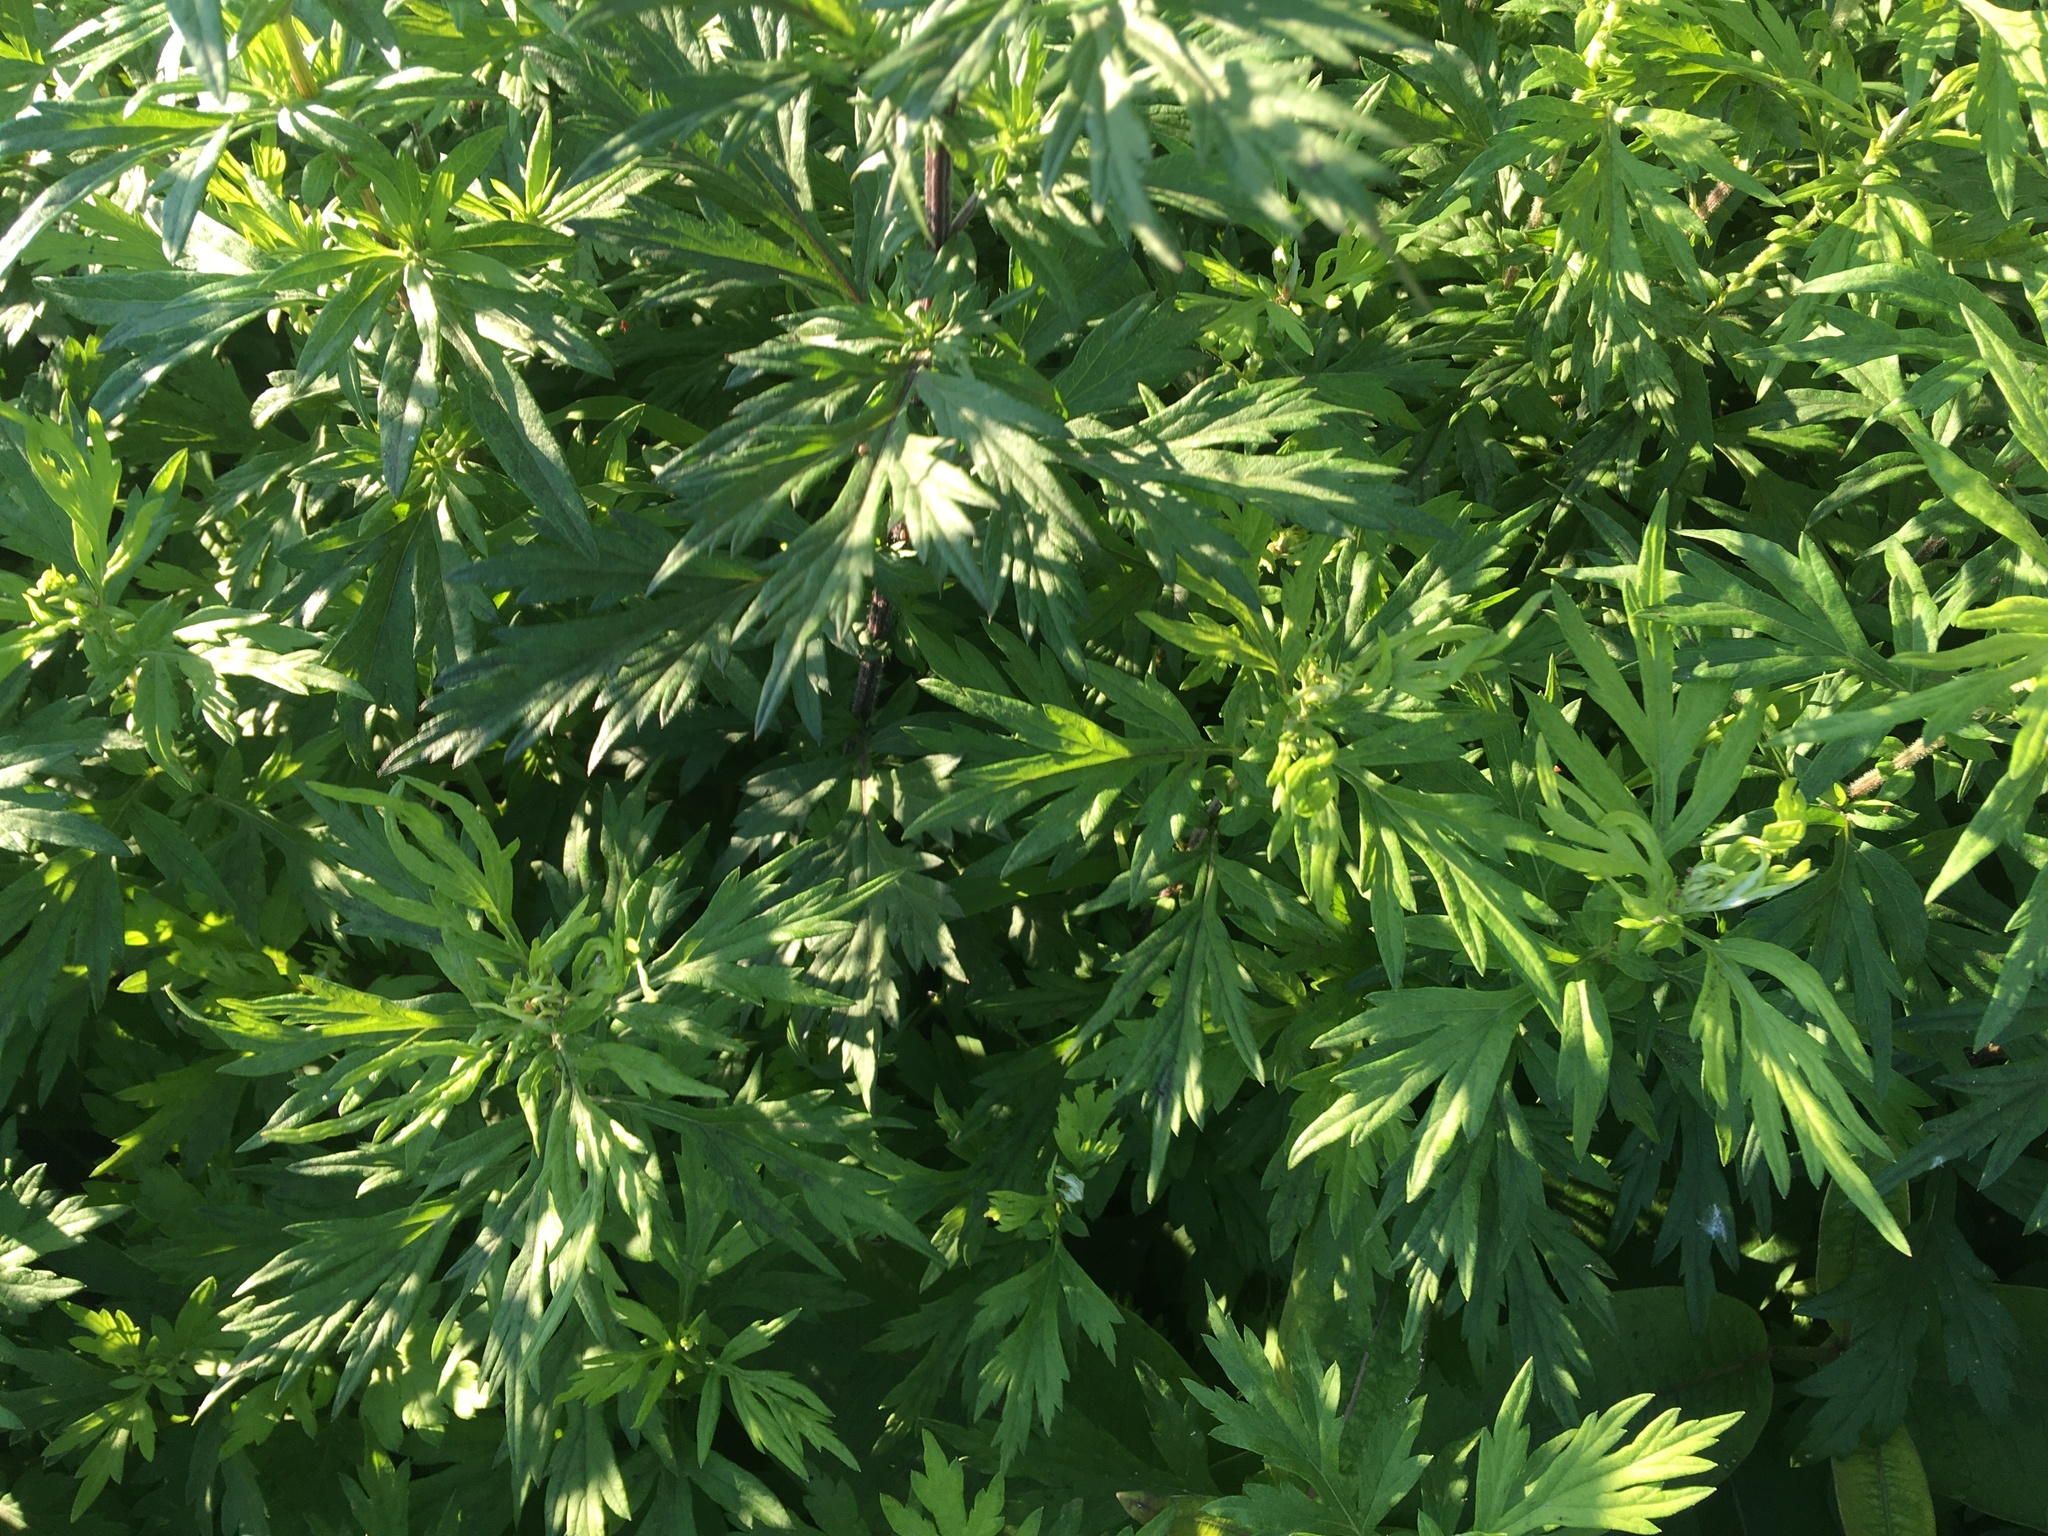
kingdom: Plantae
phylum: Tracheophyta
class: Magnoliopsida
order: Asterales
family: Asteraceae
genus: Artemisia
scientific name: Artemisia vulgaris
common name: Mugwort
